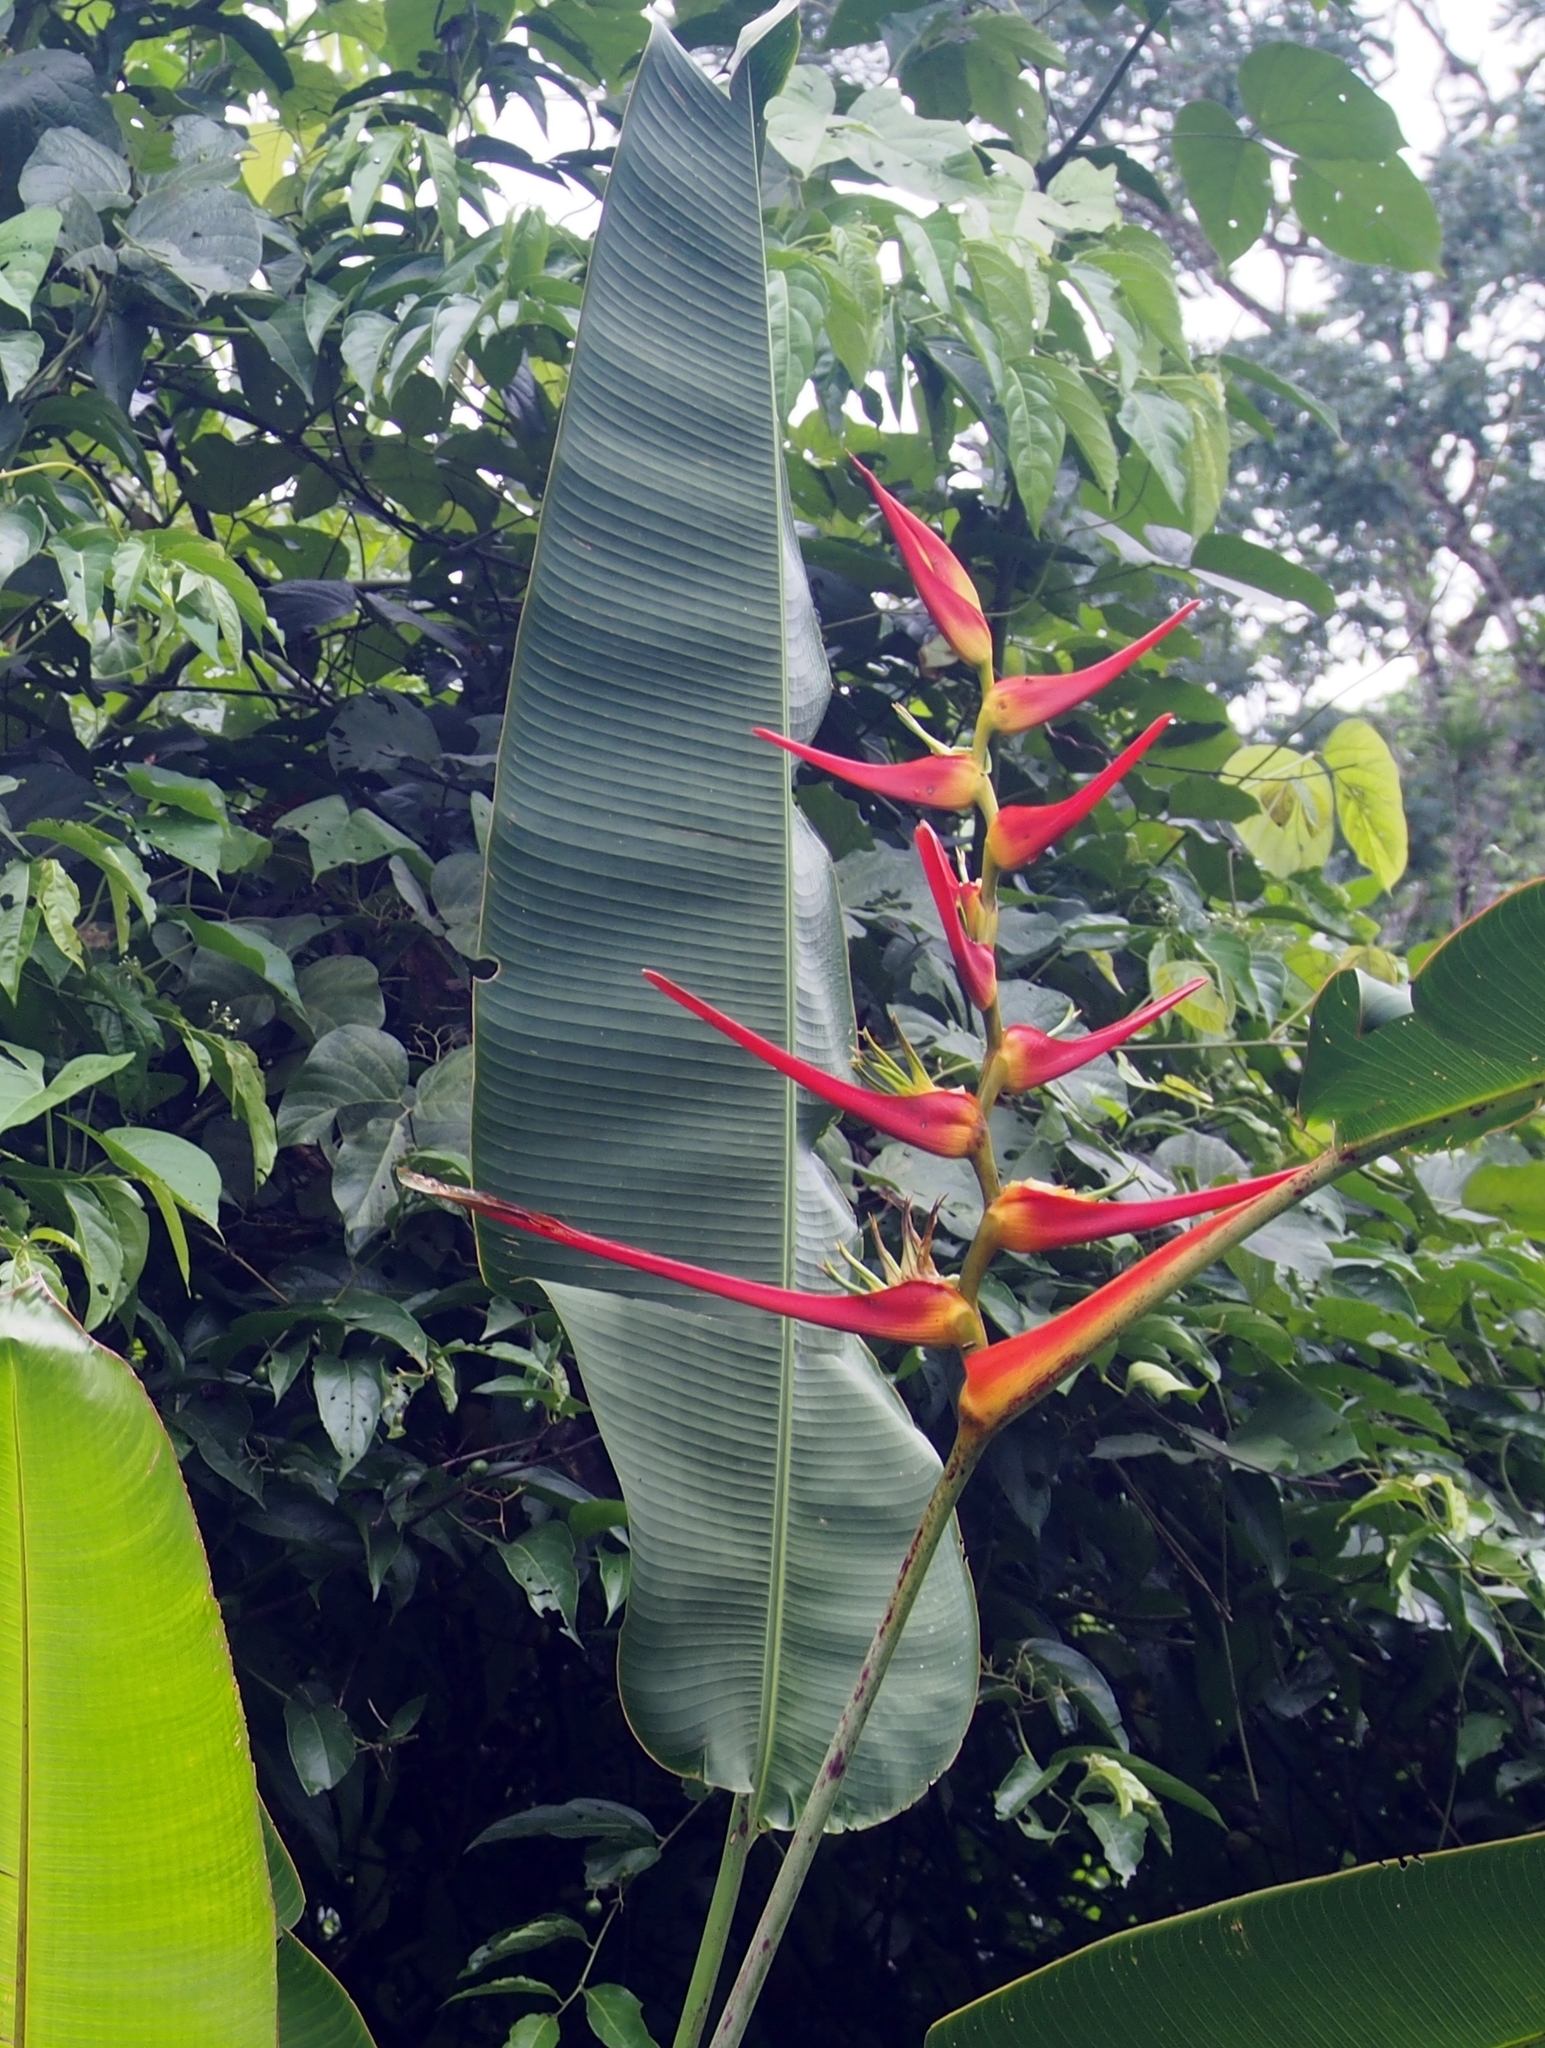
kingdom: Plantae
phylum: Tracheophyta
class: Liliopsida
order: Zingiberales
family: Heliconiaceae
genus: Heliconia
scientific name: Heliconia latispatha
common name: Expanded lobsterclaw
